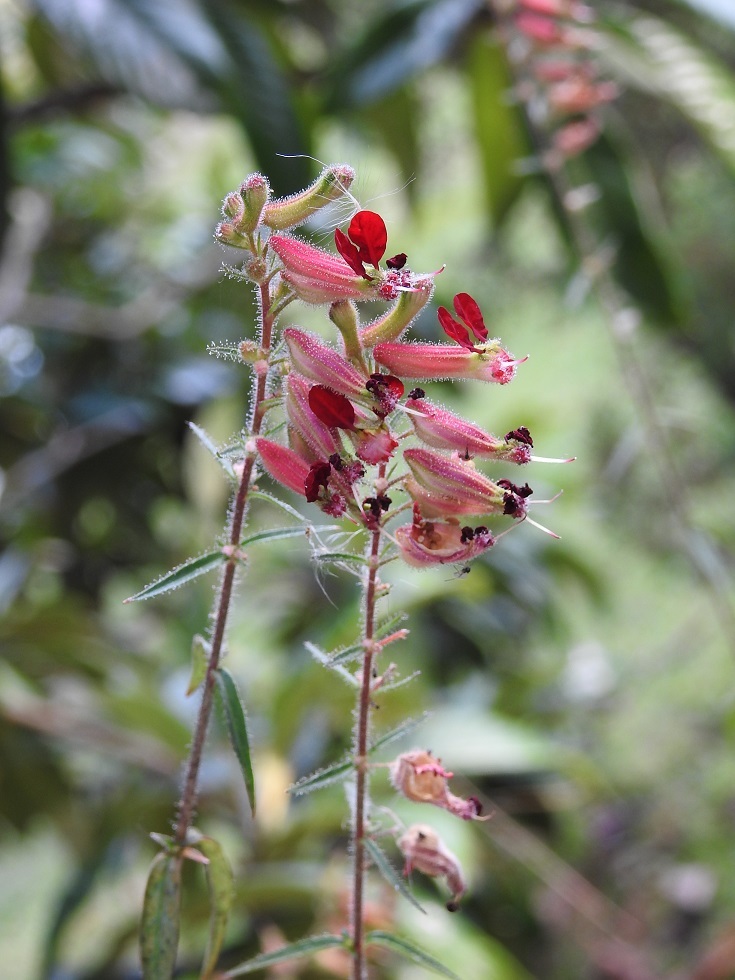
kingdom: Plantae
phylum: Tracheophyta
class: Magnoliopsida
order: Myrtales
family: Lythraceae
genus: Cuphea
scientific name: Cuphea hookeriana
